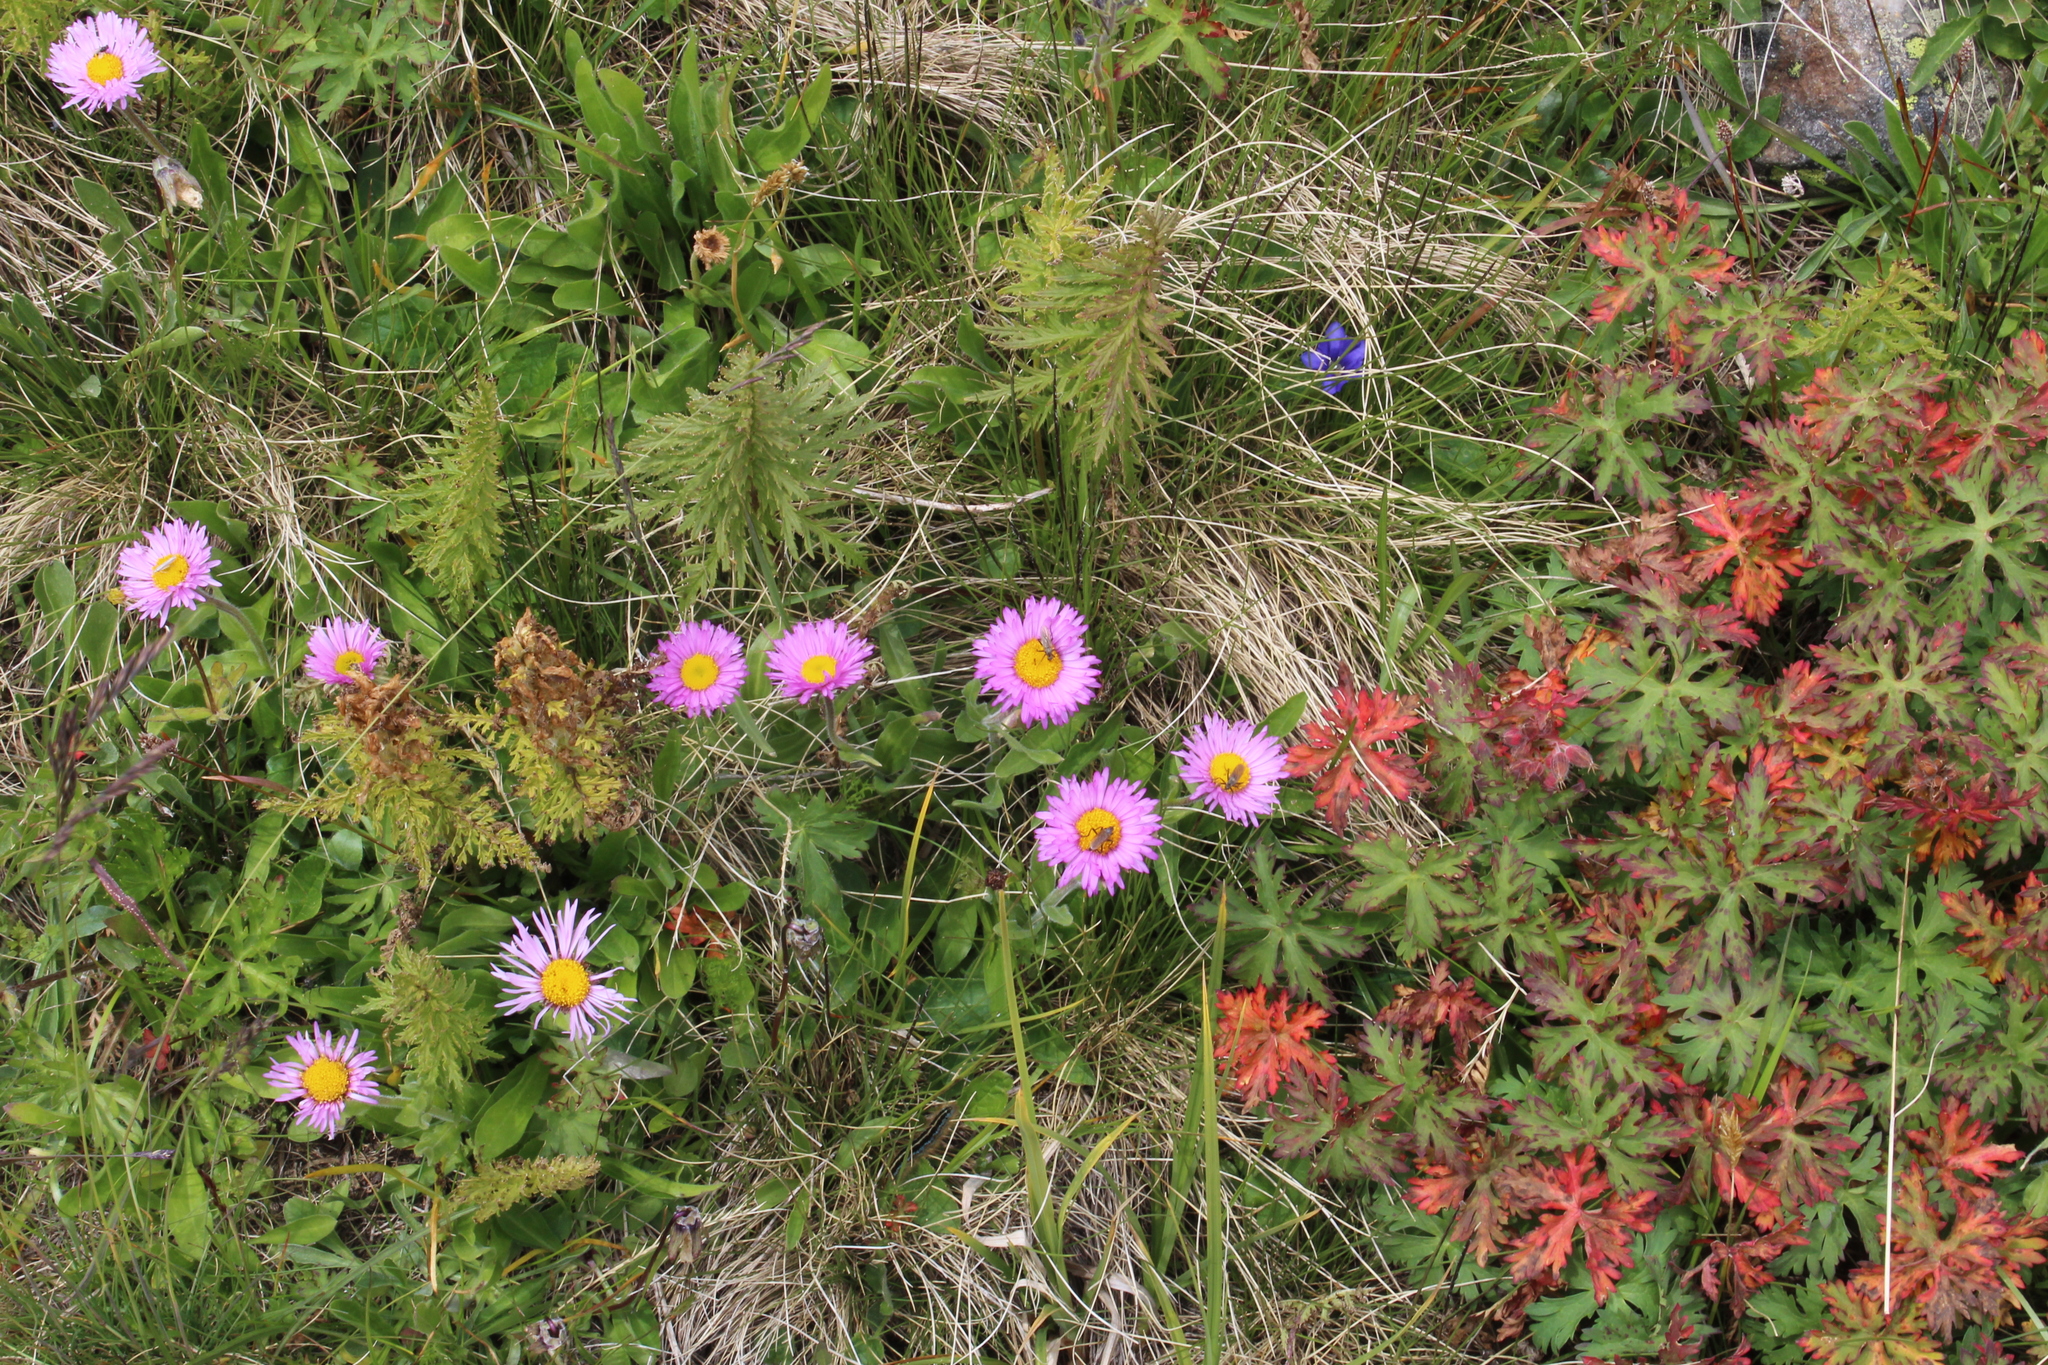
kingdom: Plantae
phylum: Tracheophyta
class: Magnoliopsida
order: Asterales
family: Asteraceae
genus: Erigeron
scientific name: Erigeron caucasicus
